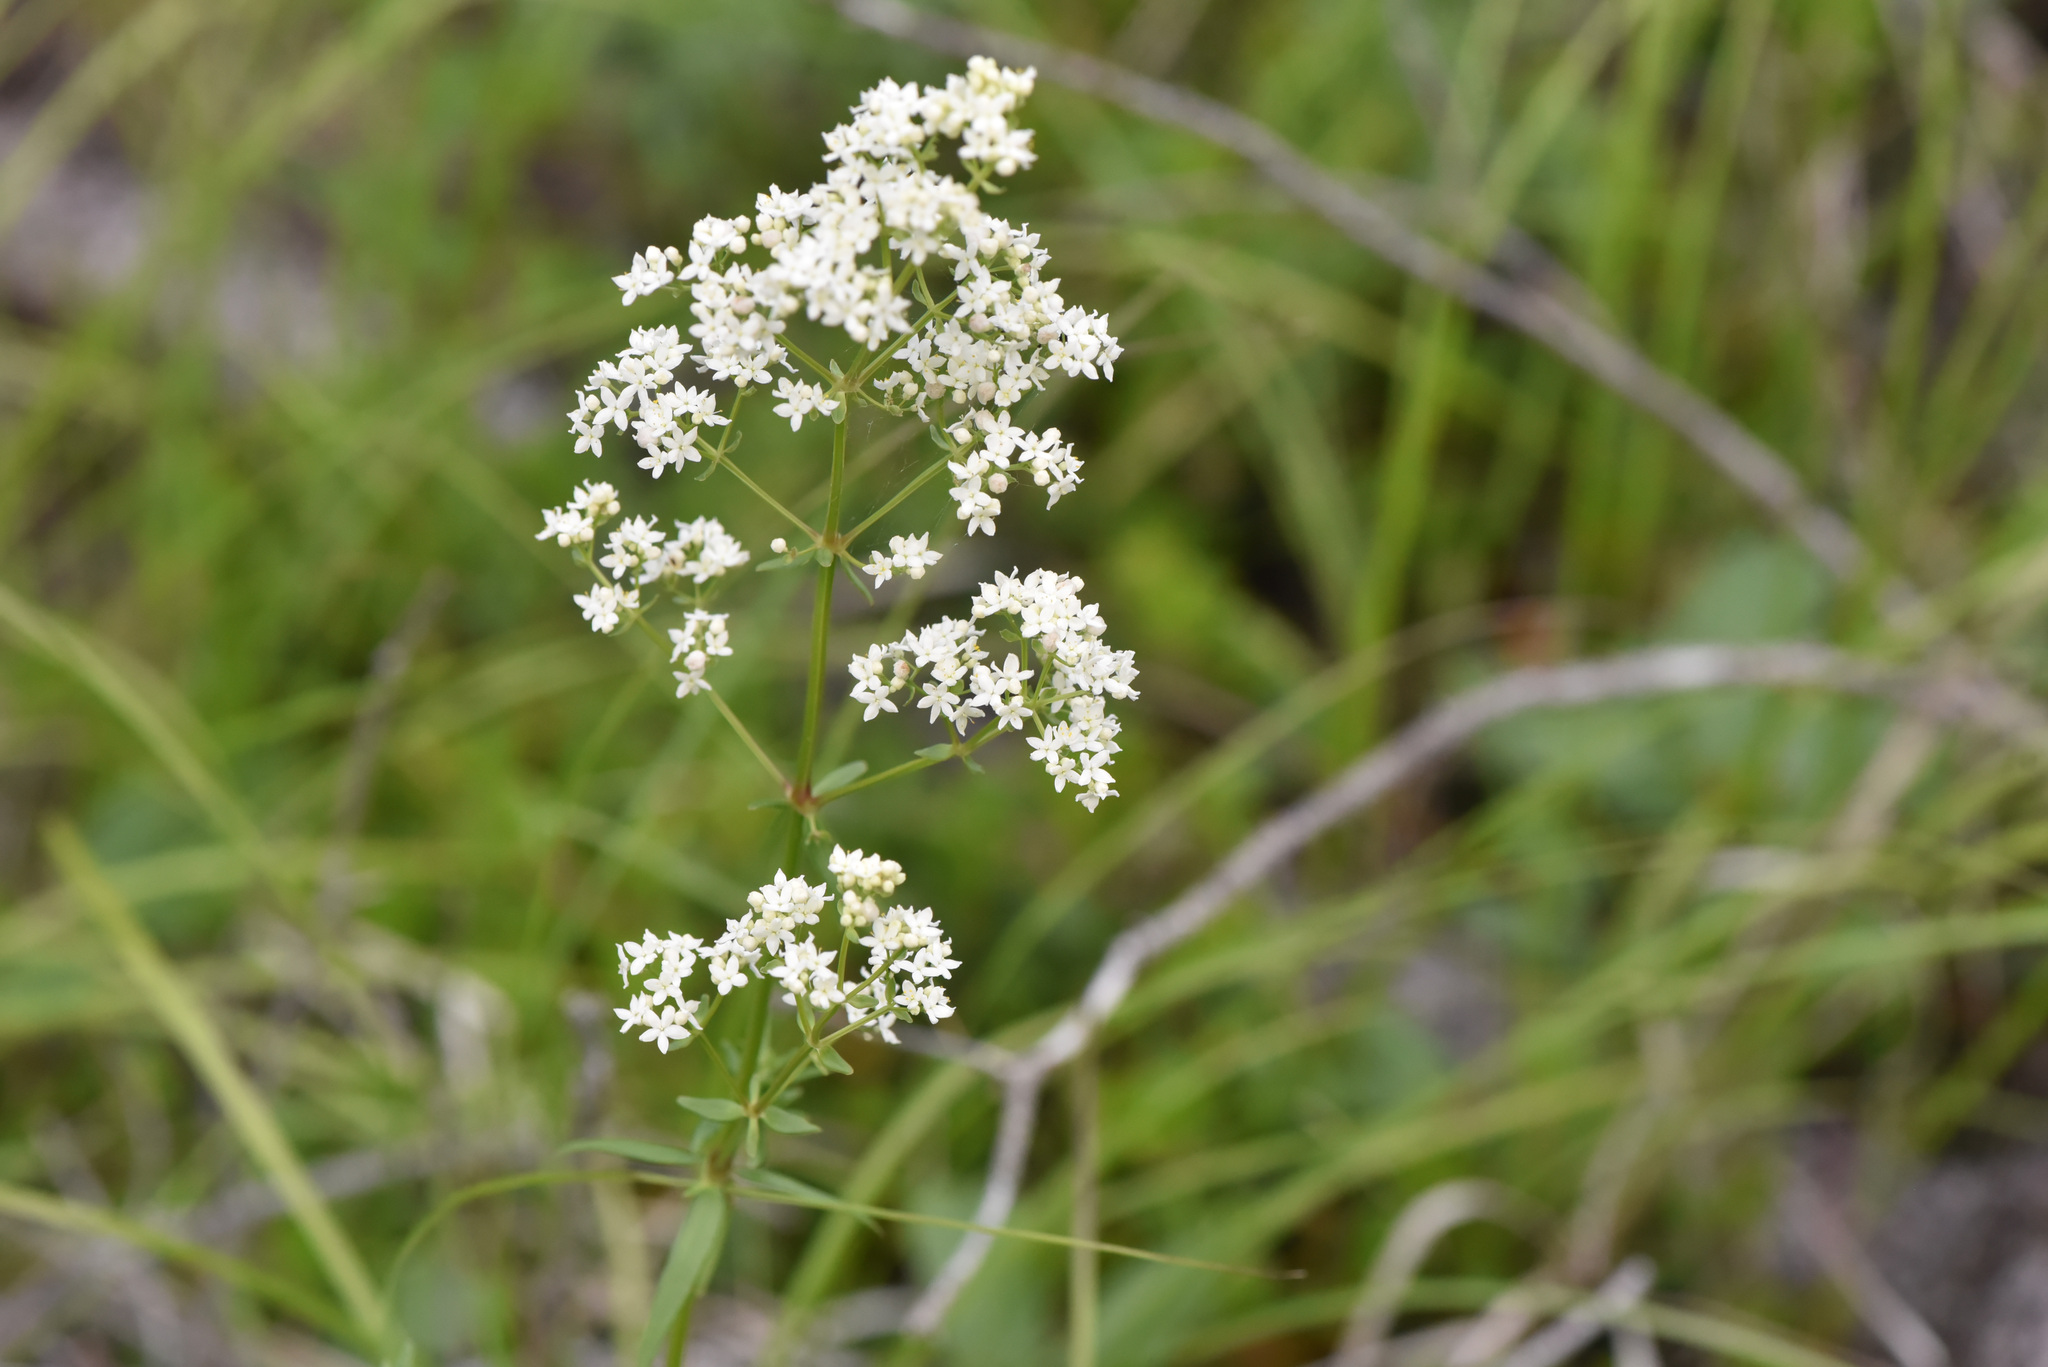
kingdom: Plantae
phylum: Tracheophyta
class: Magnoliopsida
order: Gentianales
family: Rubiaceae
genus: Galium
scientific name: Galium boreale
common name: Northern bedstraw
